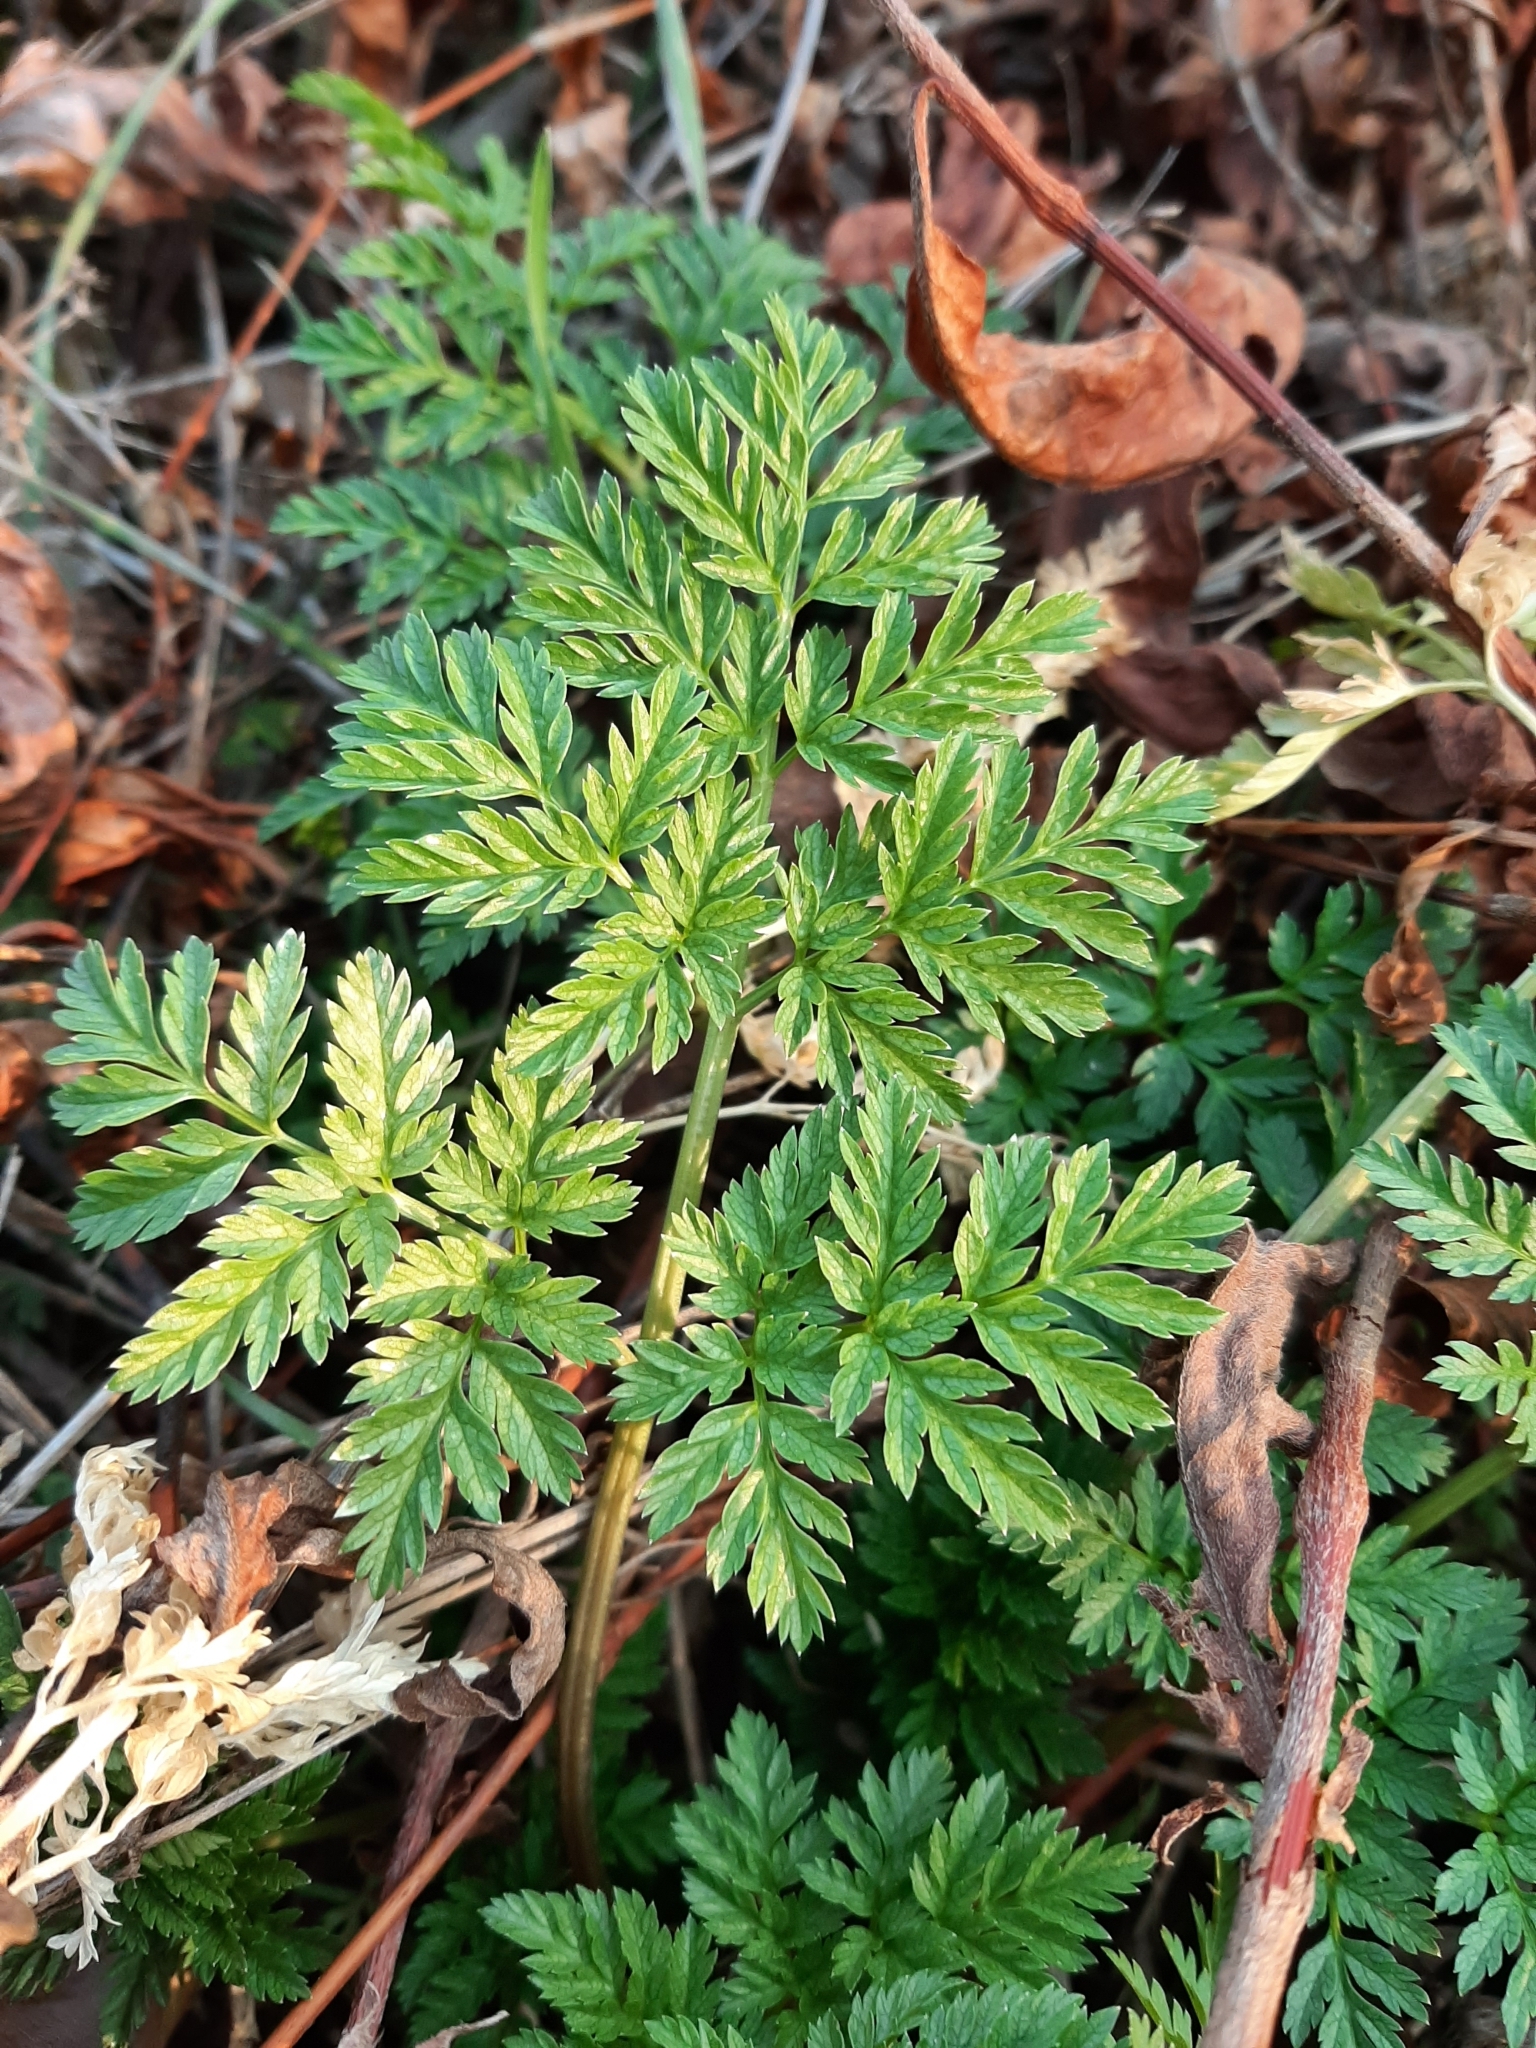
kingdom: Plantae
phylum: Tracheophyta
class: Magnoliopsida
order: Apiales
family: Apiaceae
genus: Conium
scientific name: Conium maculatum
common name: Hemlock
